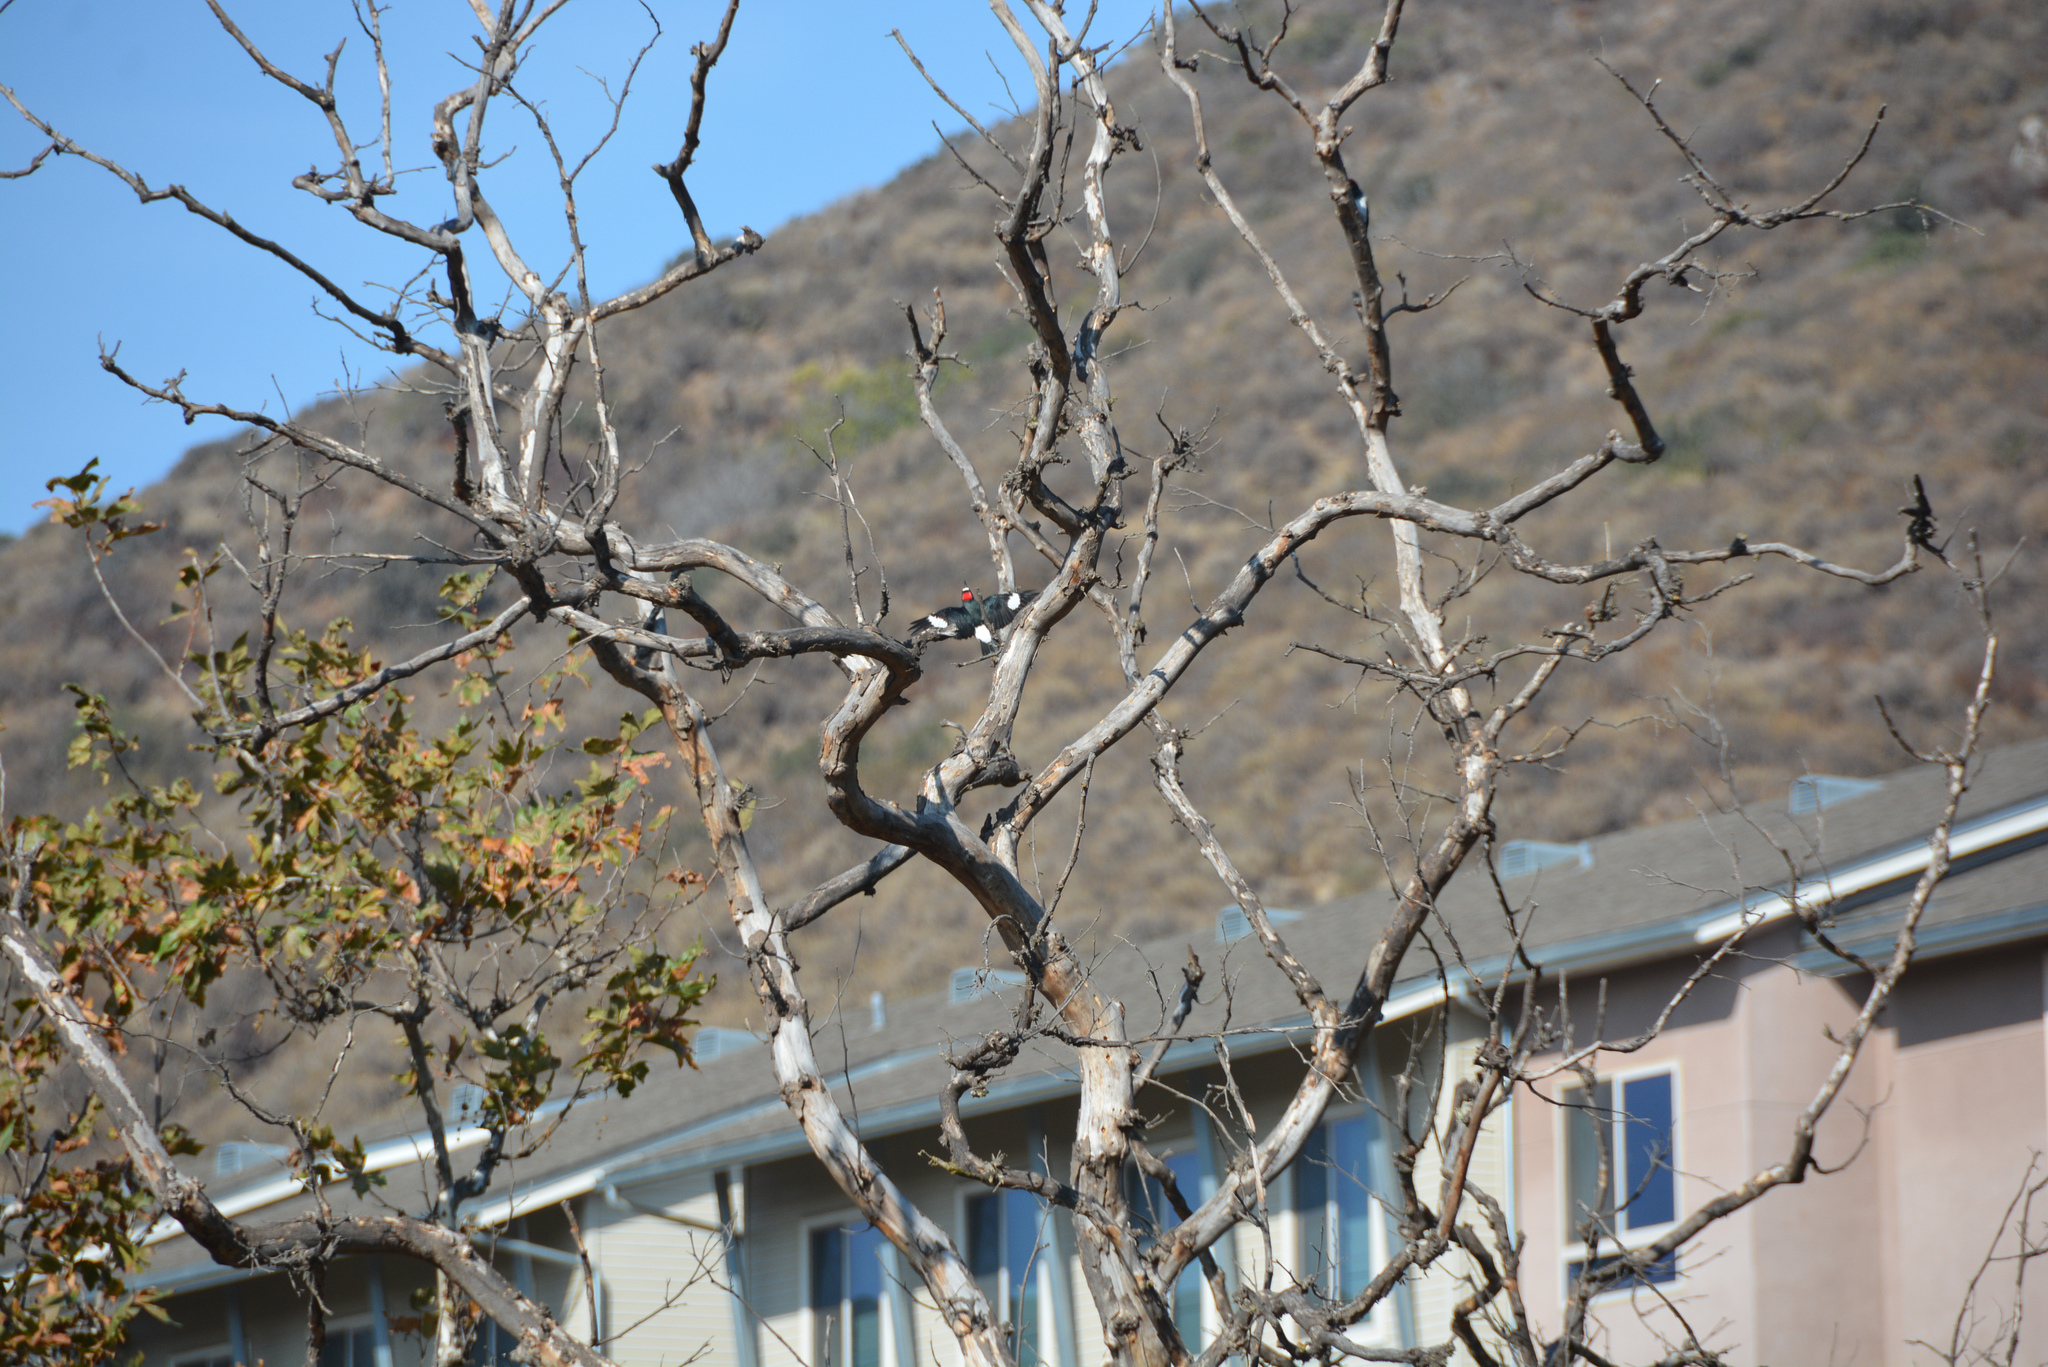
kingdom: Animalia
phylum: Chordata
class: Aves
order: Piciformes
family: Picidae
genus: Melanerpes
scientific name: Melanerpes formicivorus
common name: Acorn woodpecker
